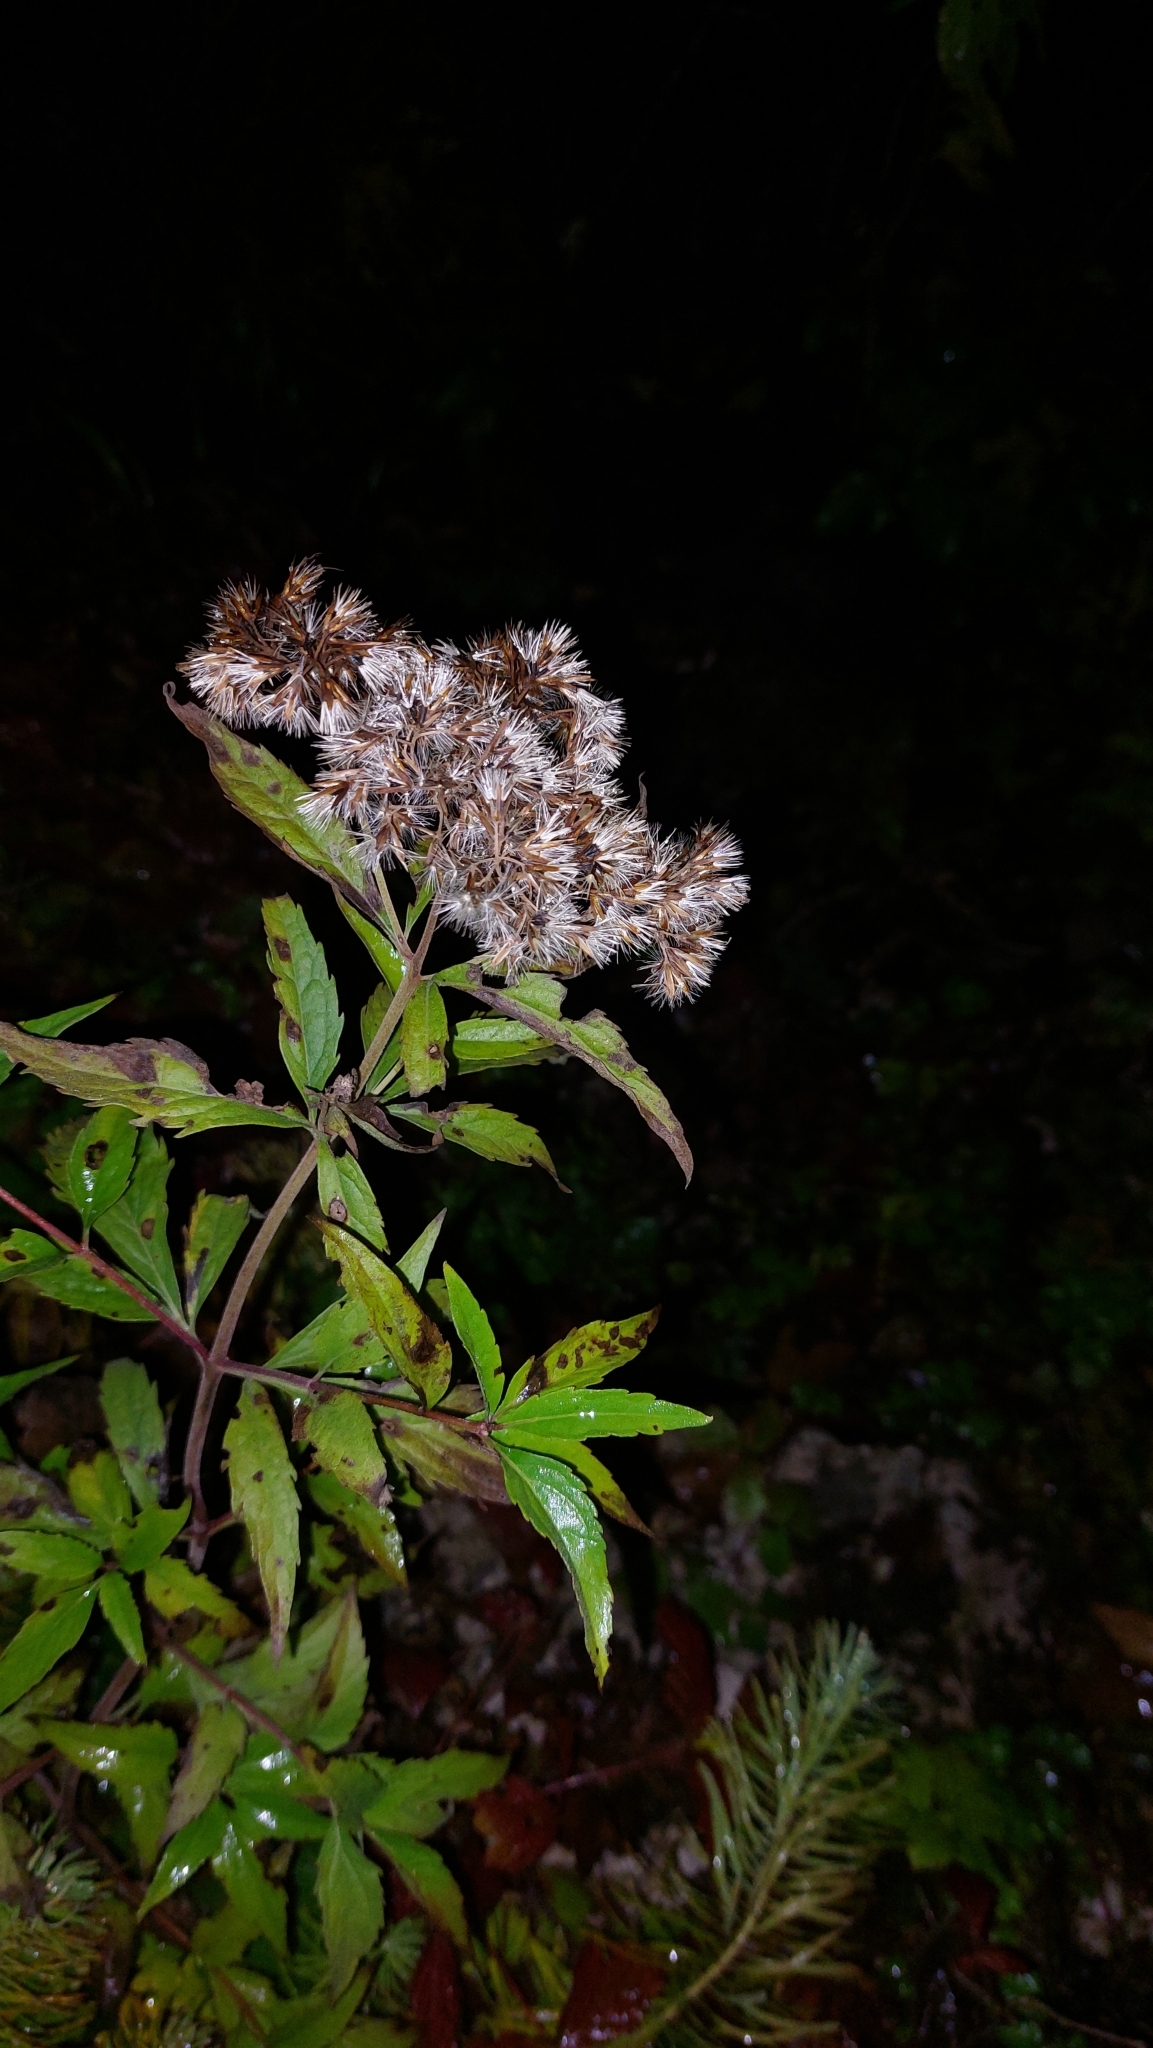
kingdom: Plantae
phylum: Tracheophyta
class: Magnoliopsida
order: Asterales
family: Asteraceae
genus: Eupatorium
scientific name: Eupatorium cannabinum
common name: Hemp-agrimony
